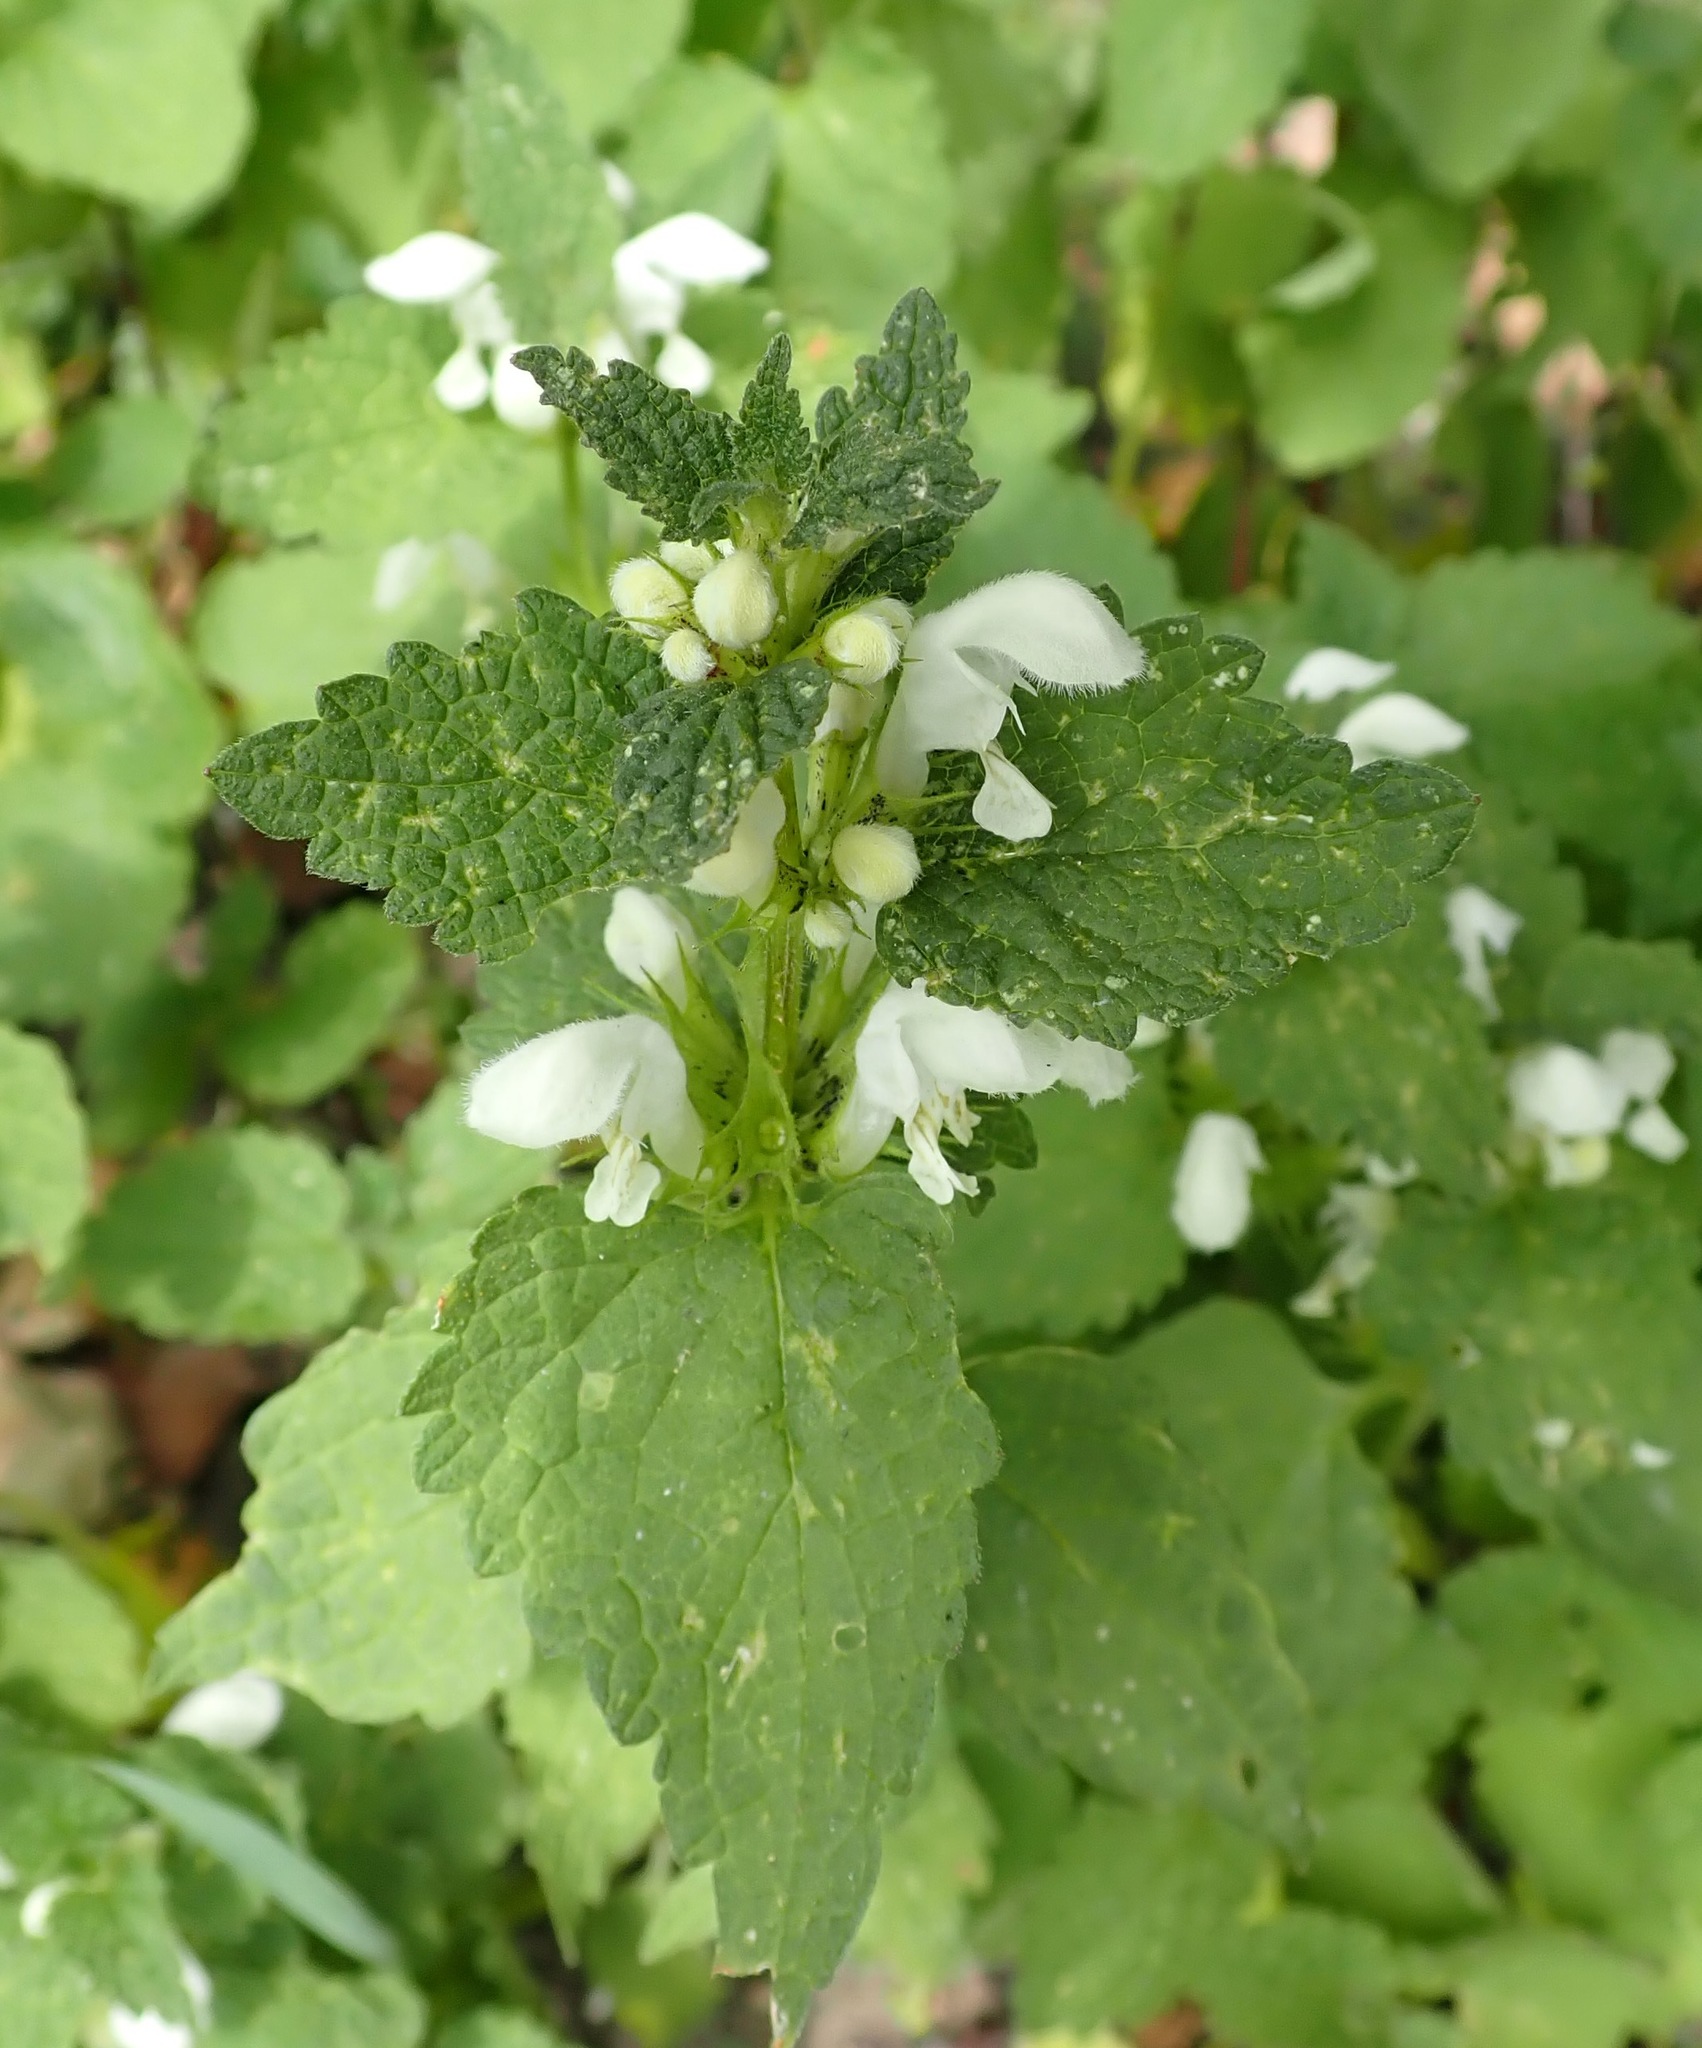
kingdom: Plantae
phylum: Tracheophyta
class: Magnoliopsida
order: Lamiales
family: Lamiaceae
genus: Lamium
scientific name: Lamium album
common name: White dead-nettle
